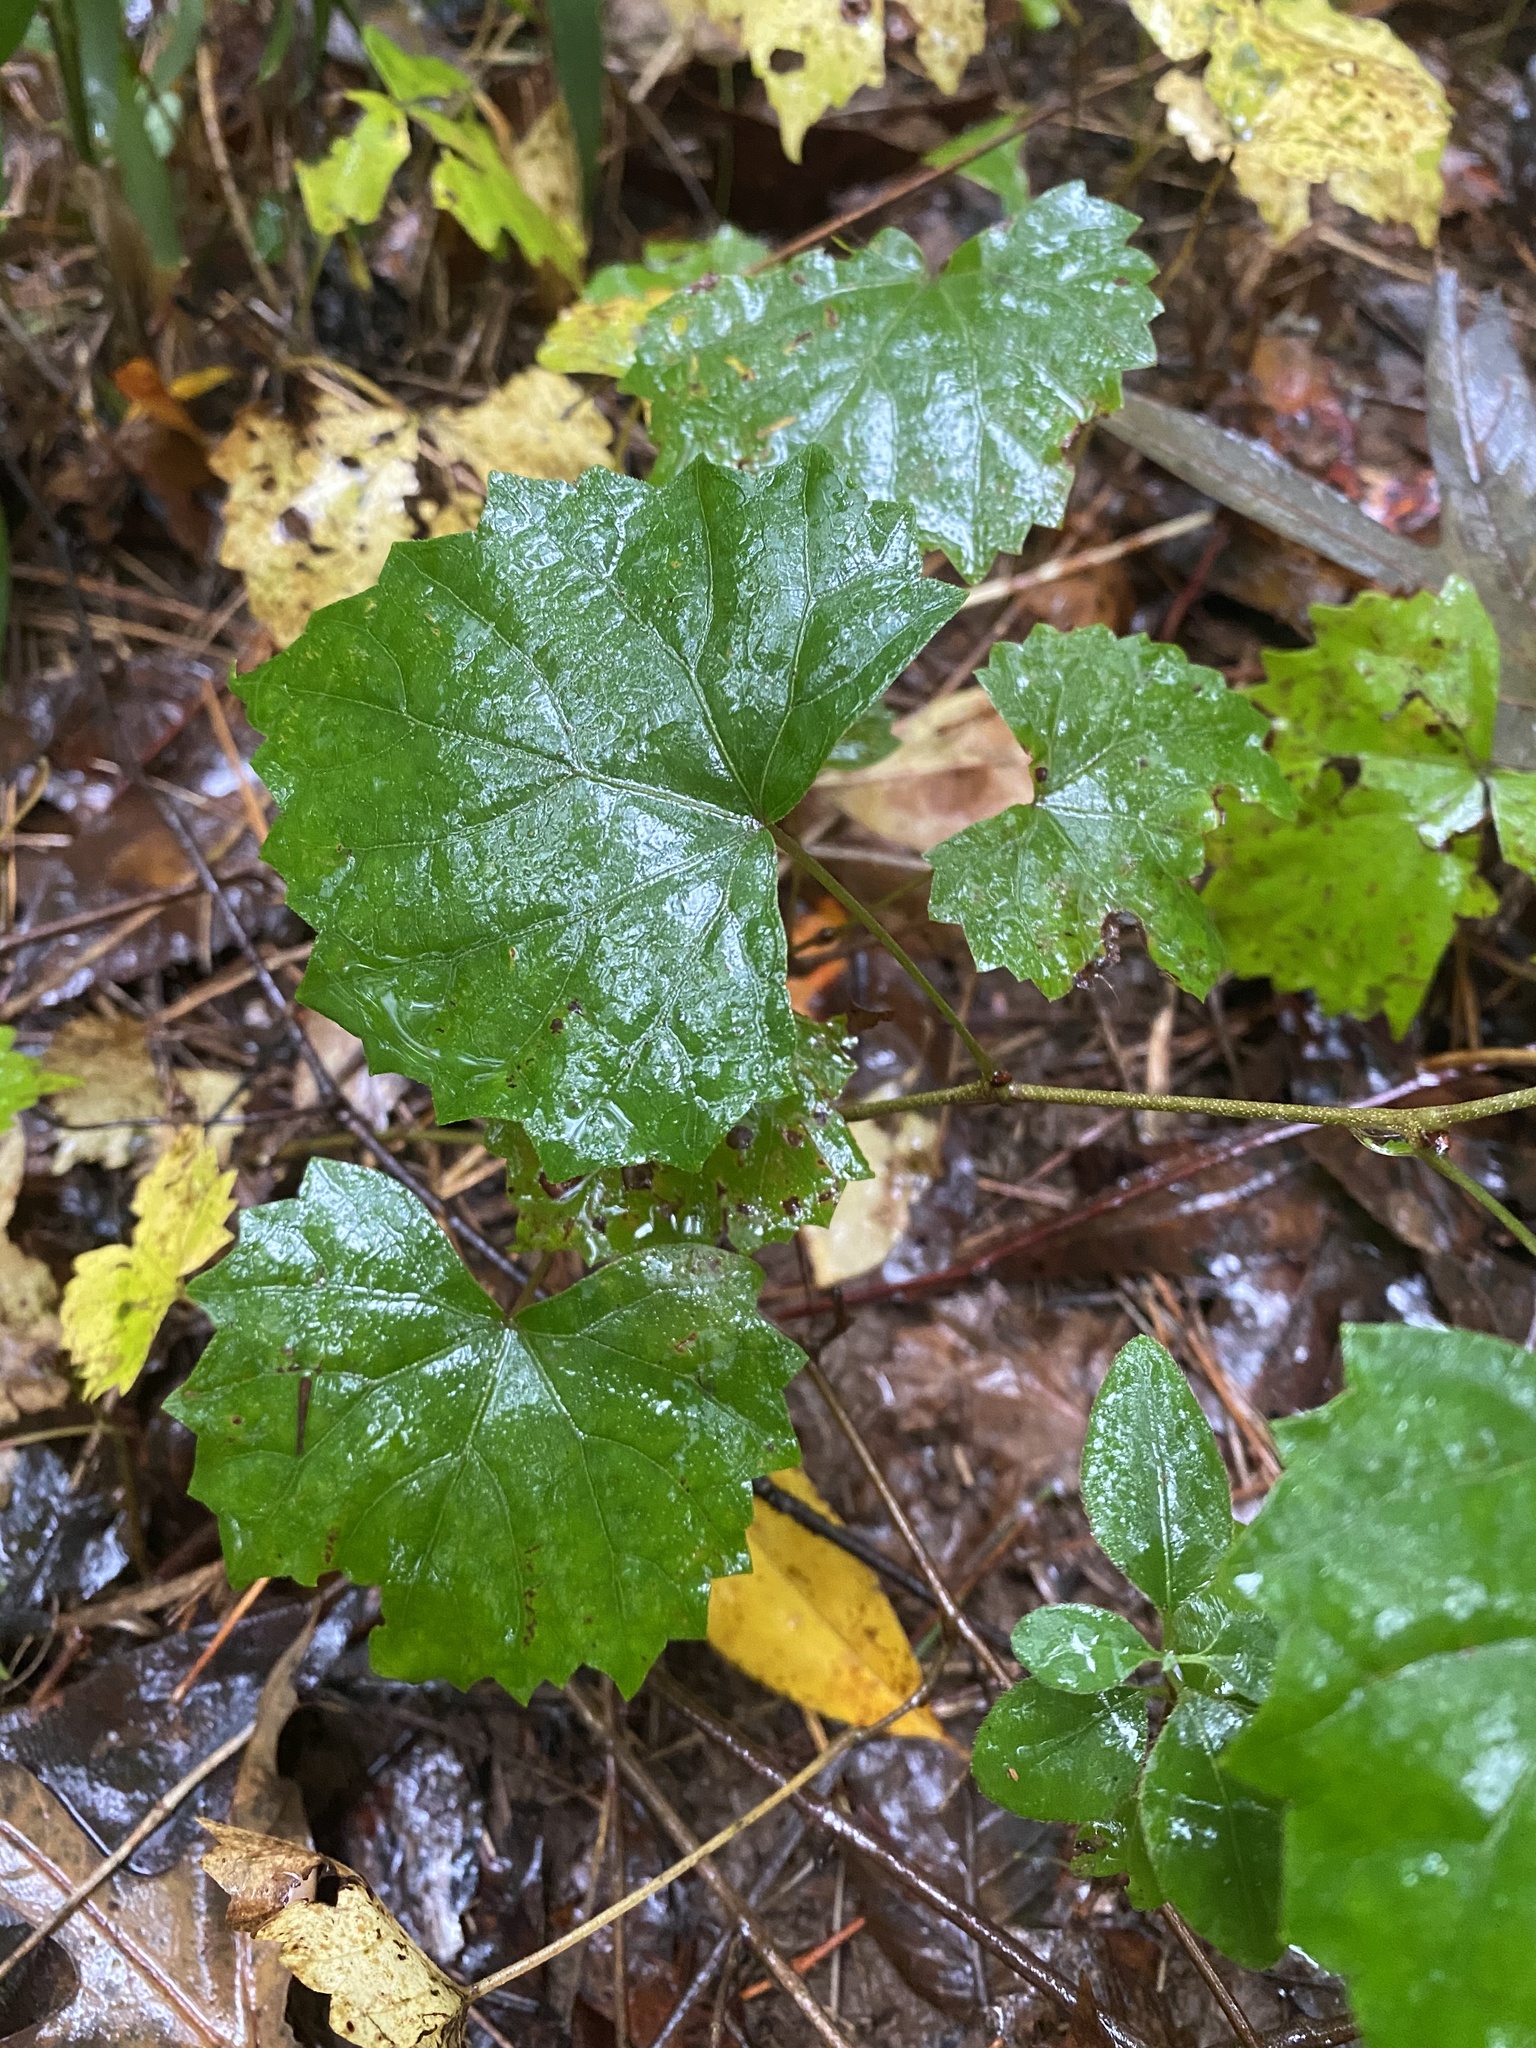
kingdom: Plantae
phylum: Tracheophyta
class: Magnoliopsida
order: Vitales
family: Vitaceae
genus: Vitis
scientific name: Vitis rotundifolia
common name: Muscadine grape
